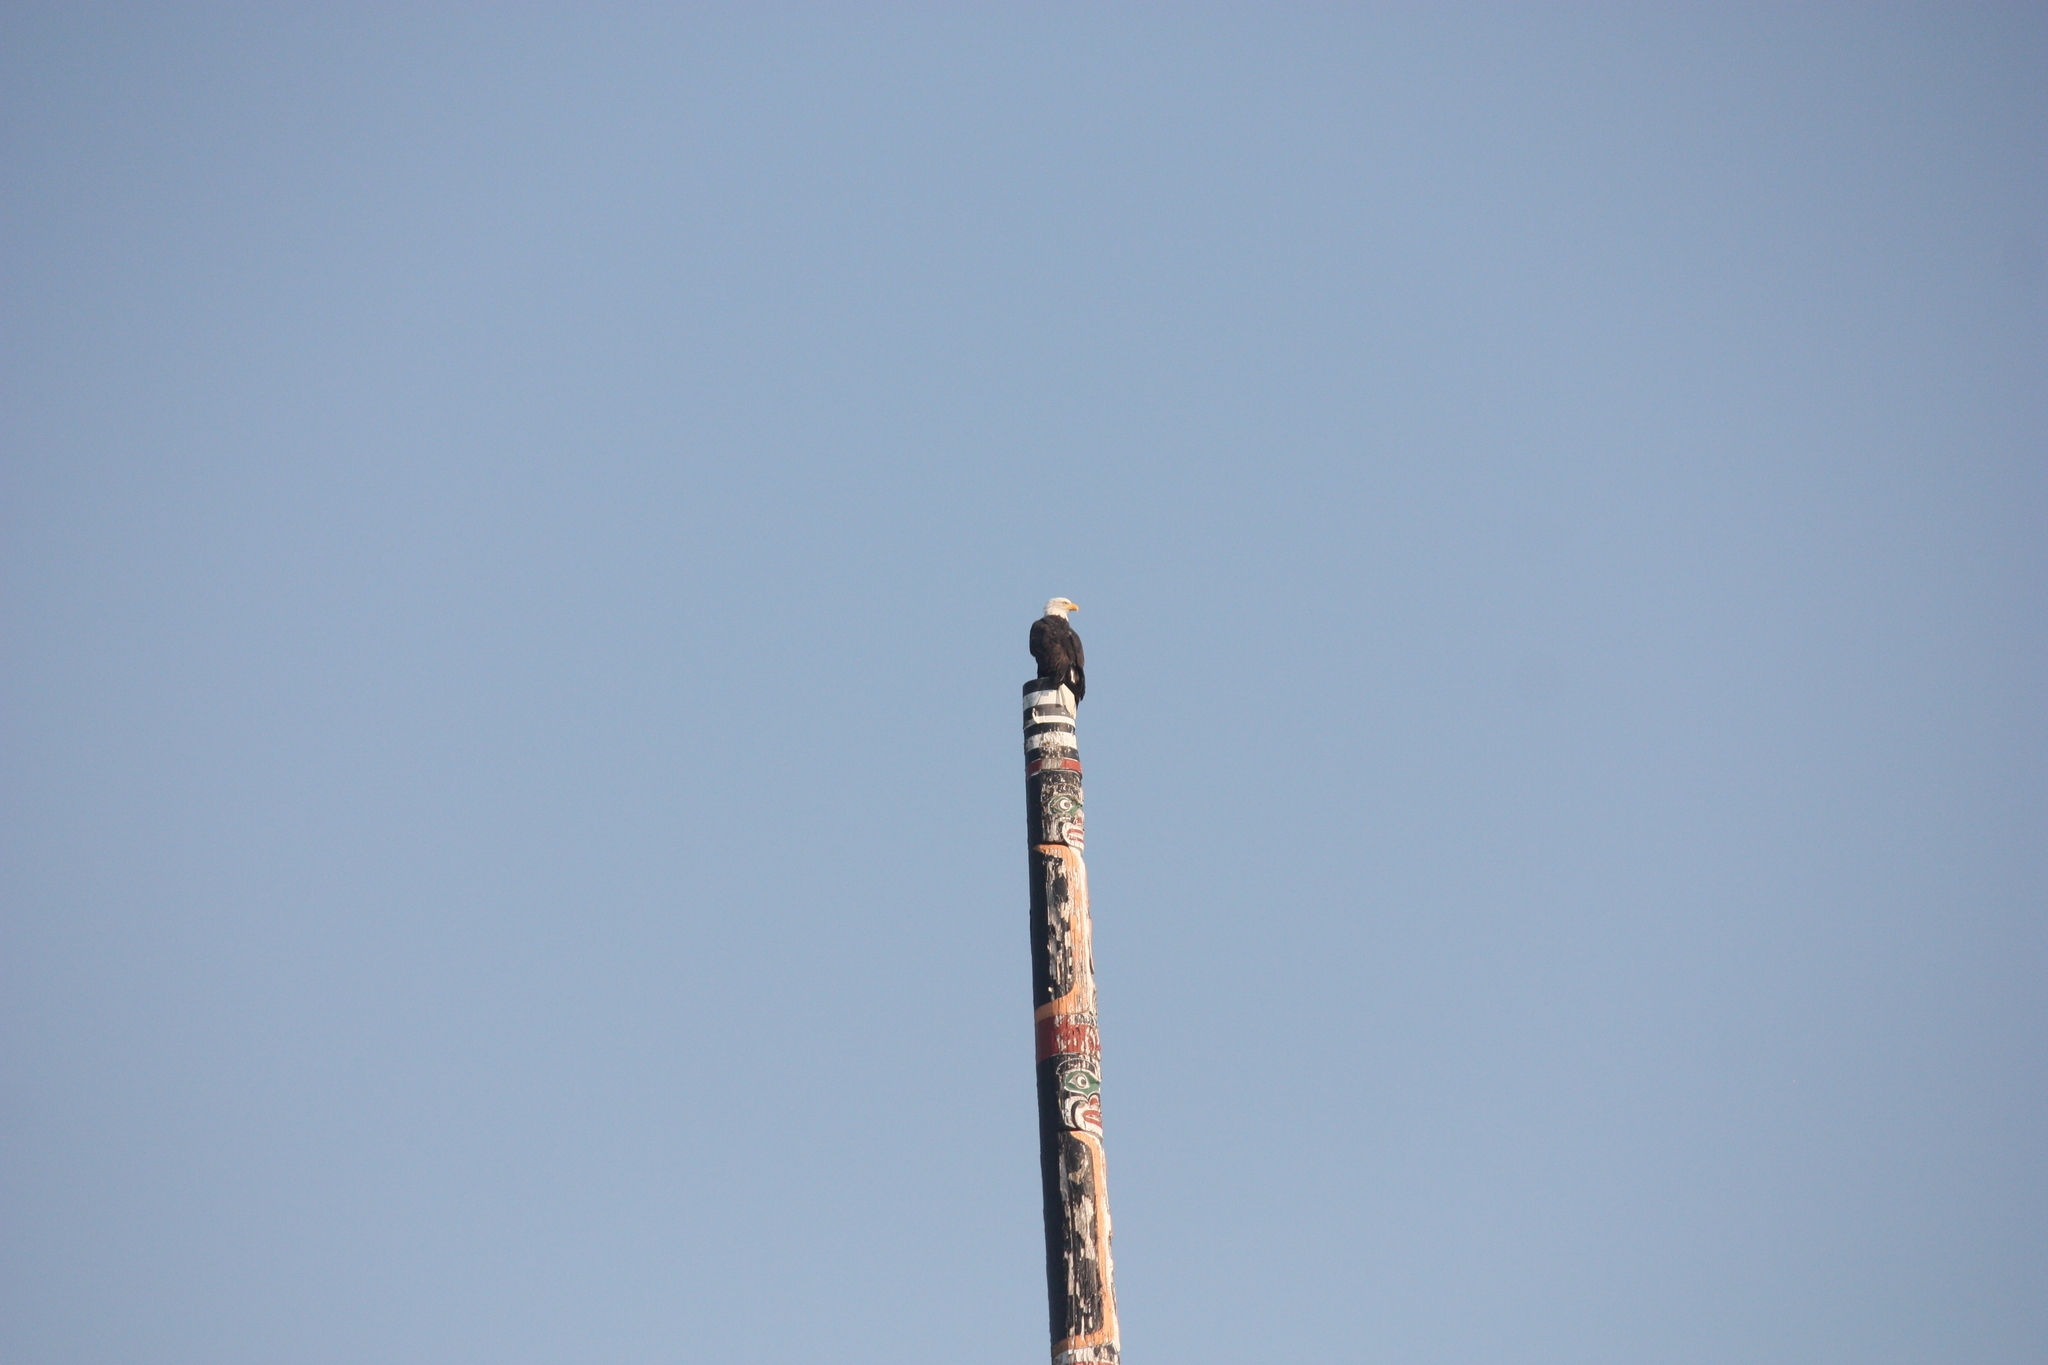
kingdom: Animalia
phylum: Chordata
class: Aves
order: Accipitriformes
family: Accipitridae
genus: Haliaeetus
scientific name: Haliaeetus leucocephalus
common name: Bald eagle
